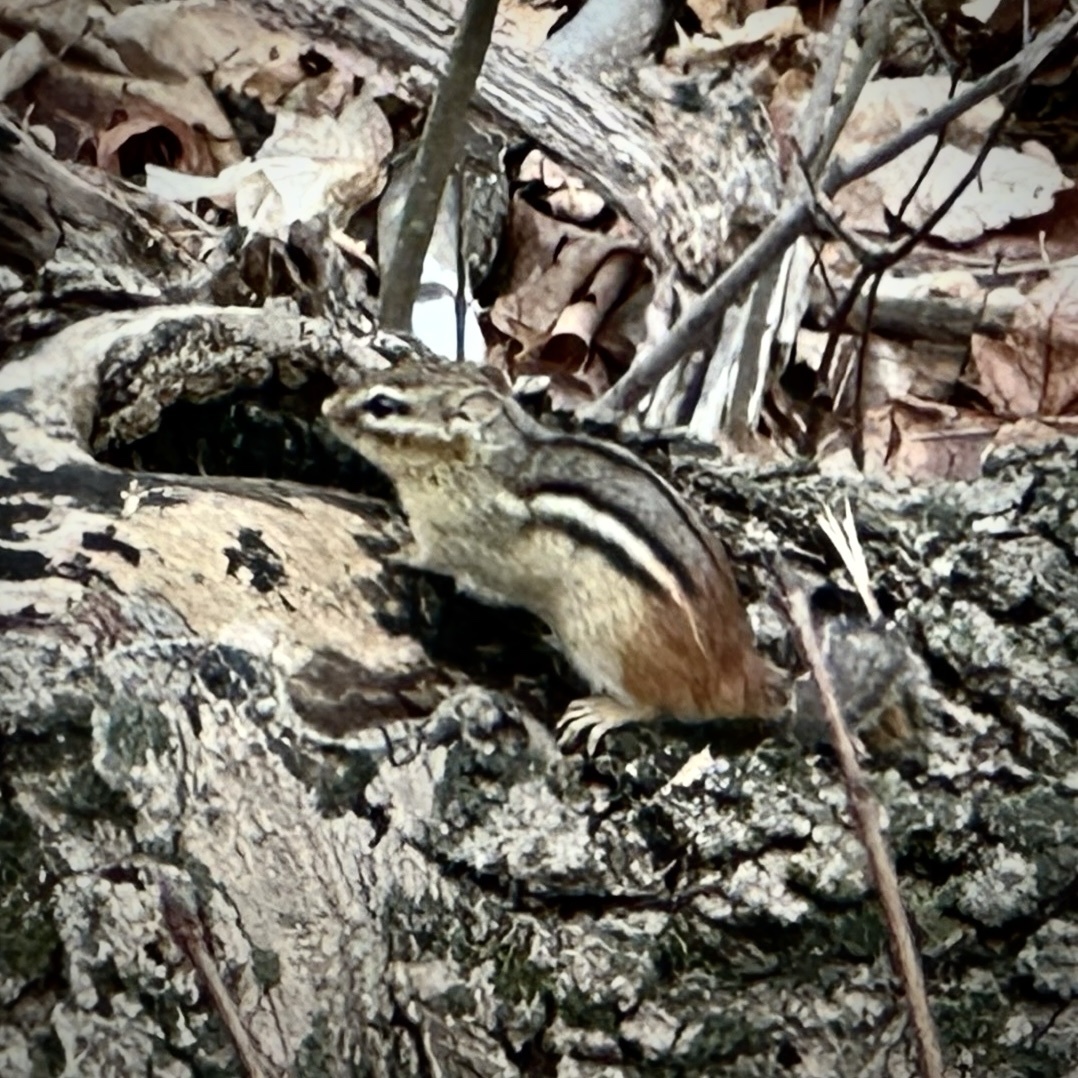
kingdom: Animalia
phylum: Chordata
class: Mammalia
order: Rodentia
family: Sciuridae
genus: Tamias
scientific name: Tamias striatus
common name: Eastern chipmunk
